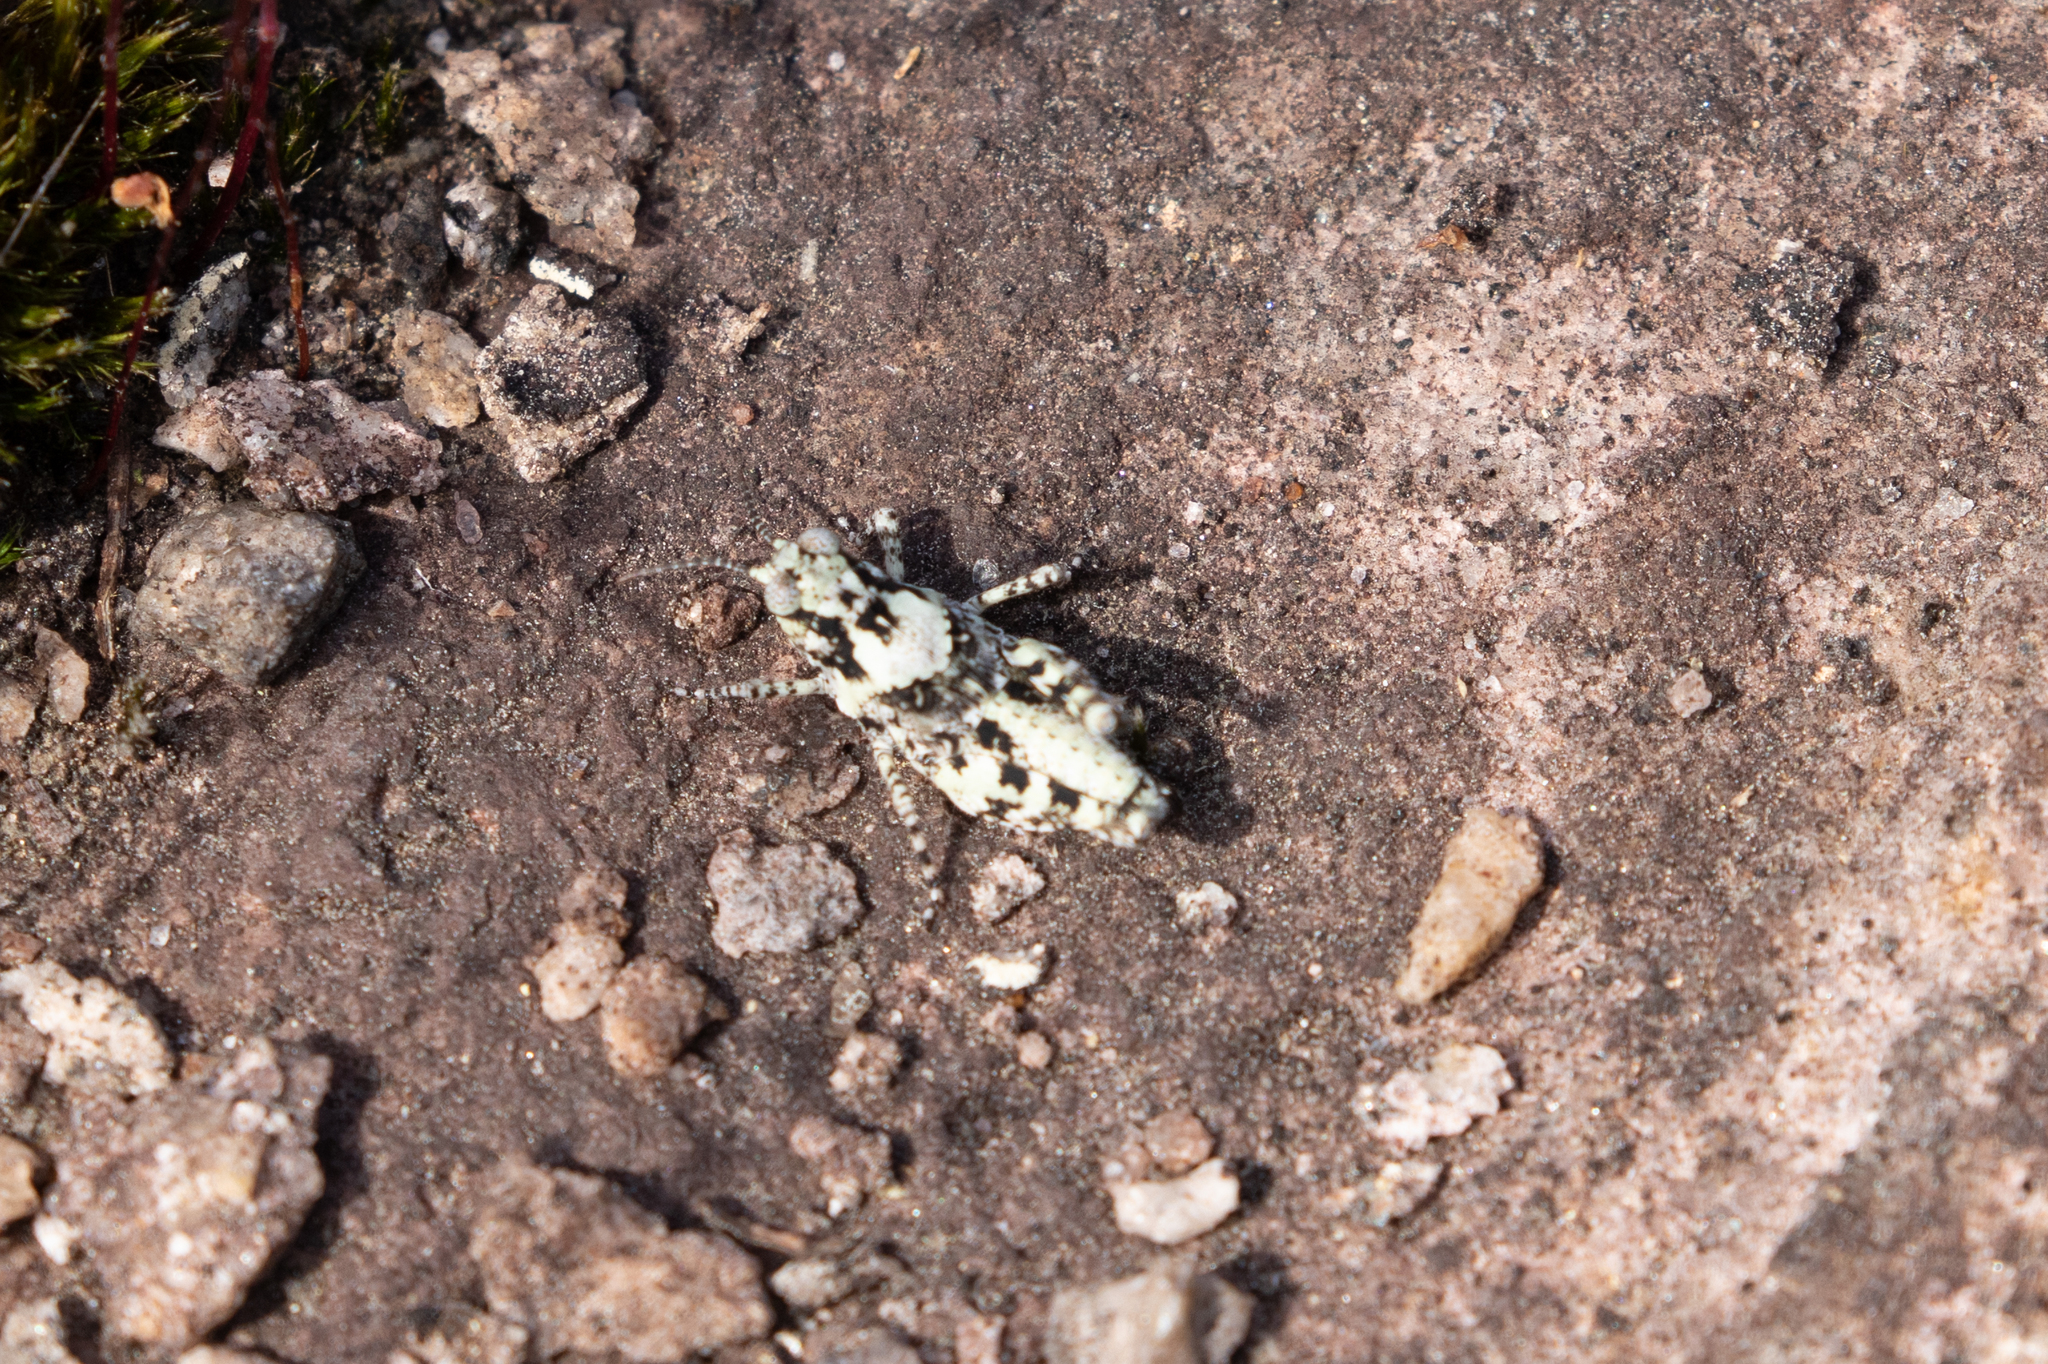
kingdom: Animalia
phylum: Arthropoda
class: Insecta
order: Orthoptera
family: Acrididae
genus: Trimerotropis
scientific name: Trimerotropis saxatilis
